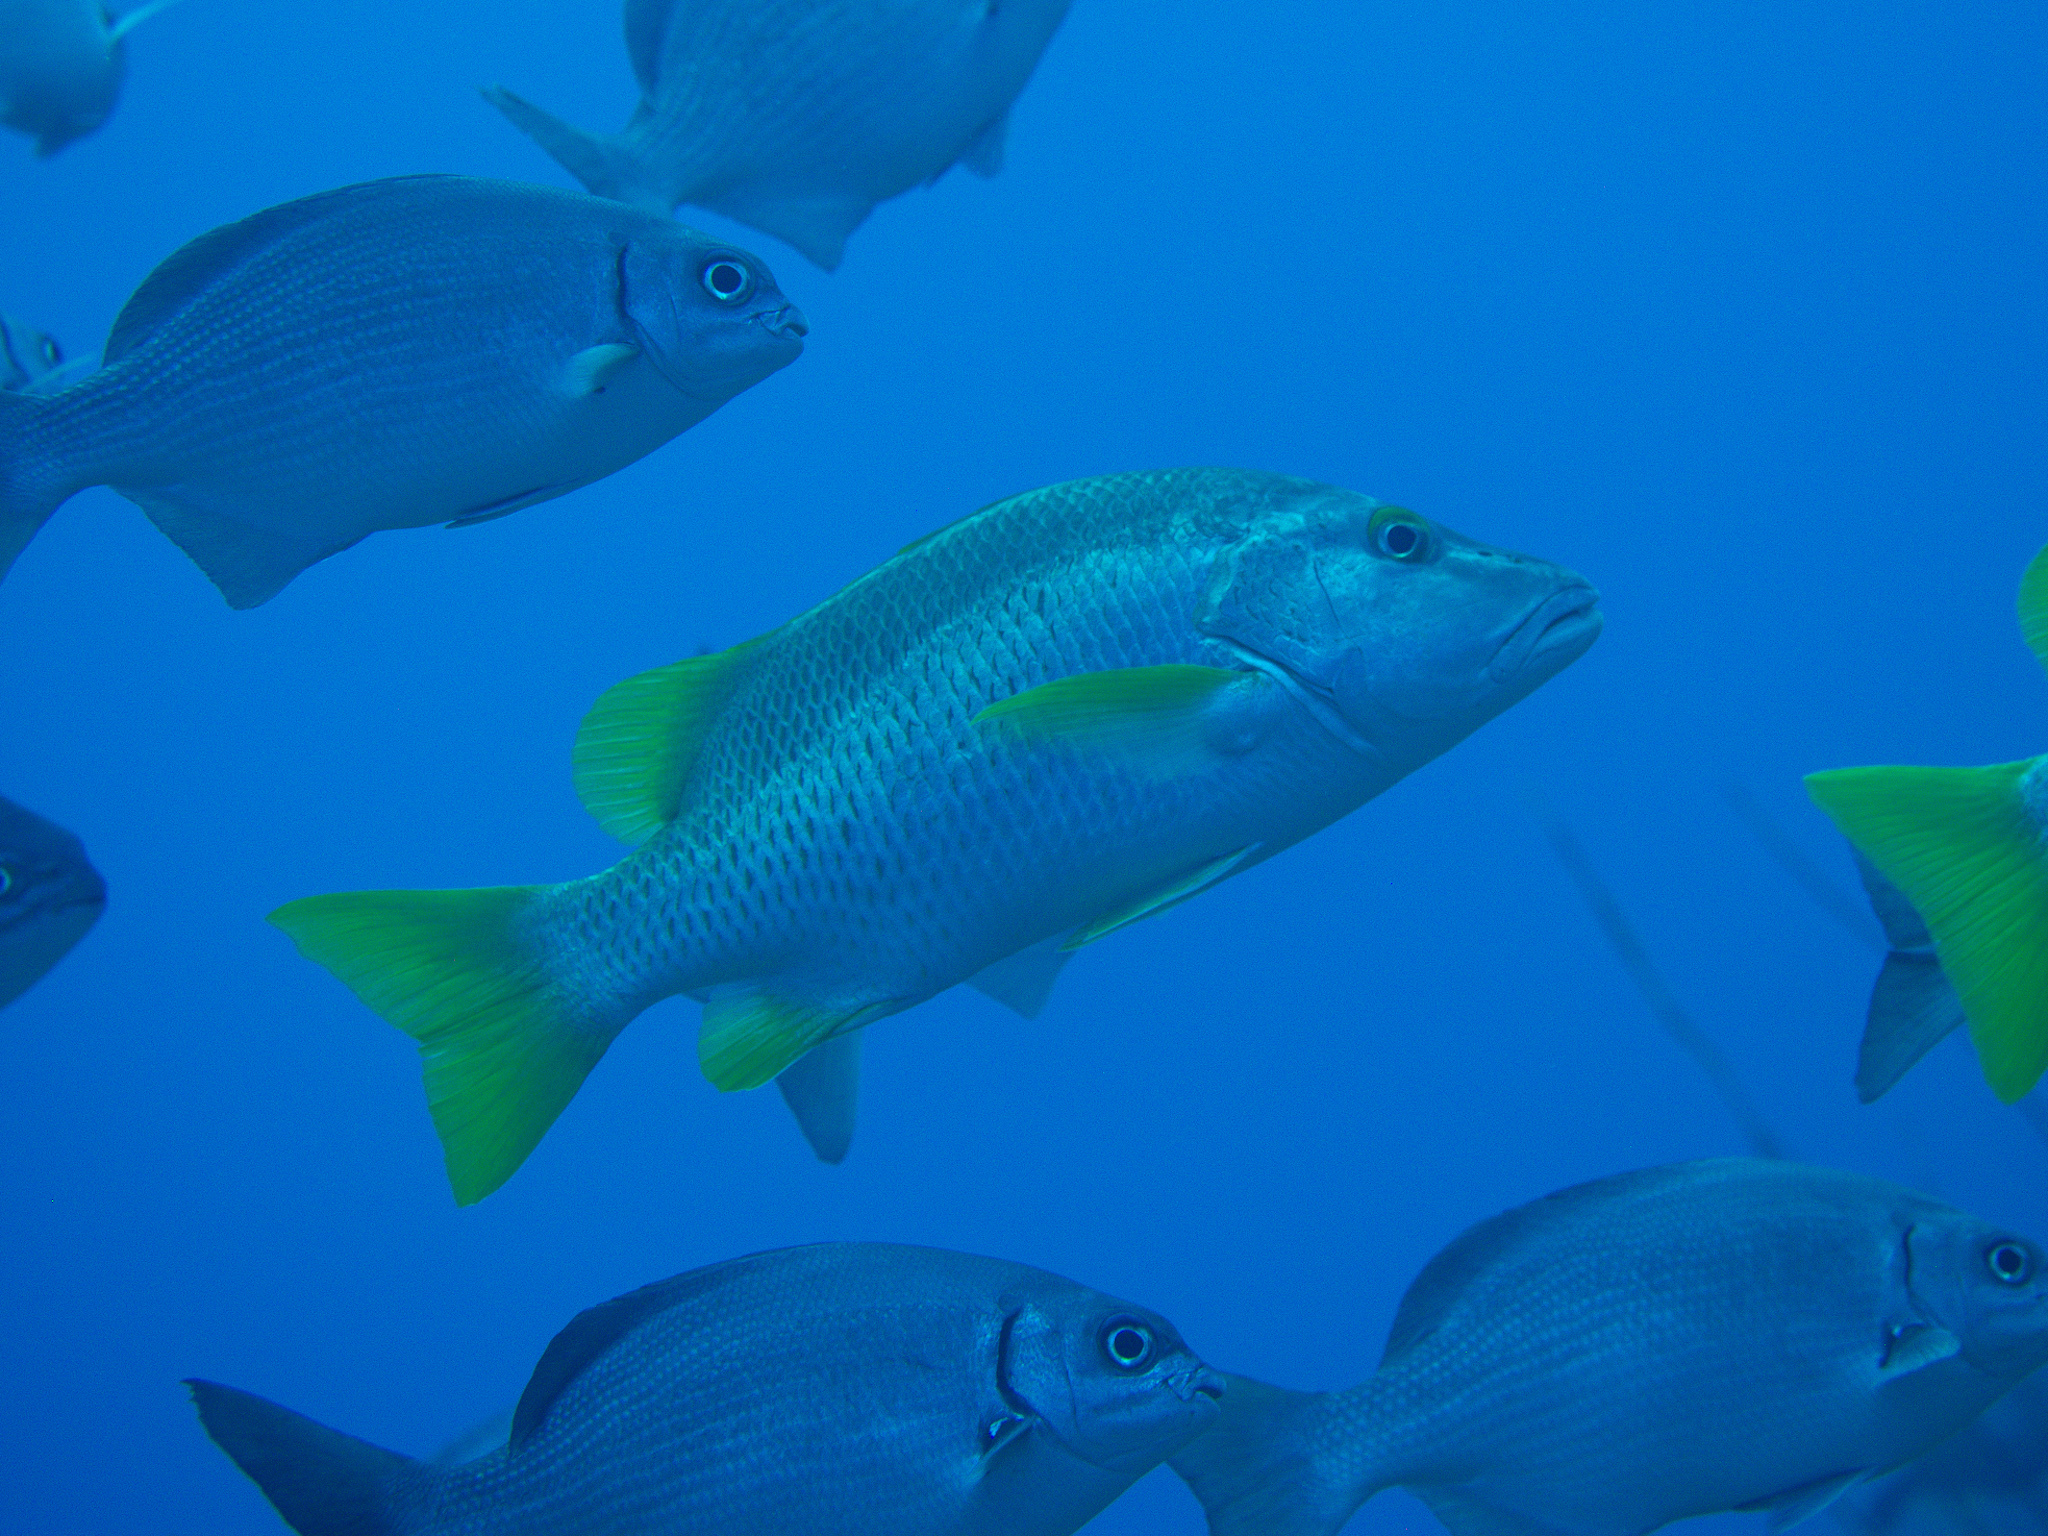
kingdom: Animalia
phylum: Chordata
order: Perciformes
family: Lutjanidae
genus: Lutjanus
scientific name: Lutjanus apodus
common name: Schoolmaster
